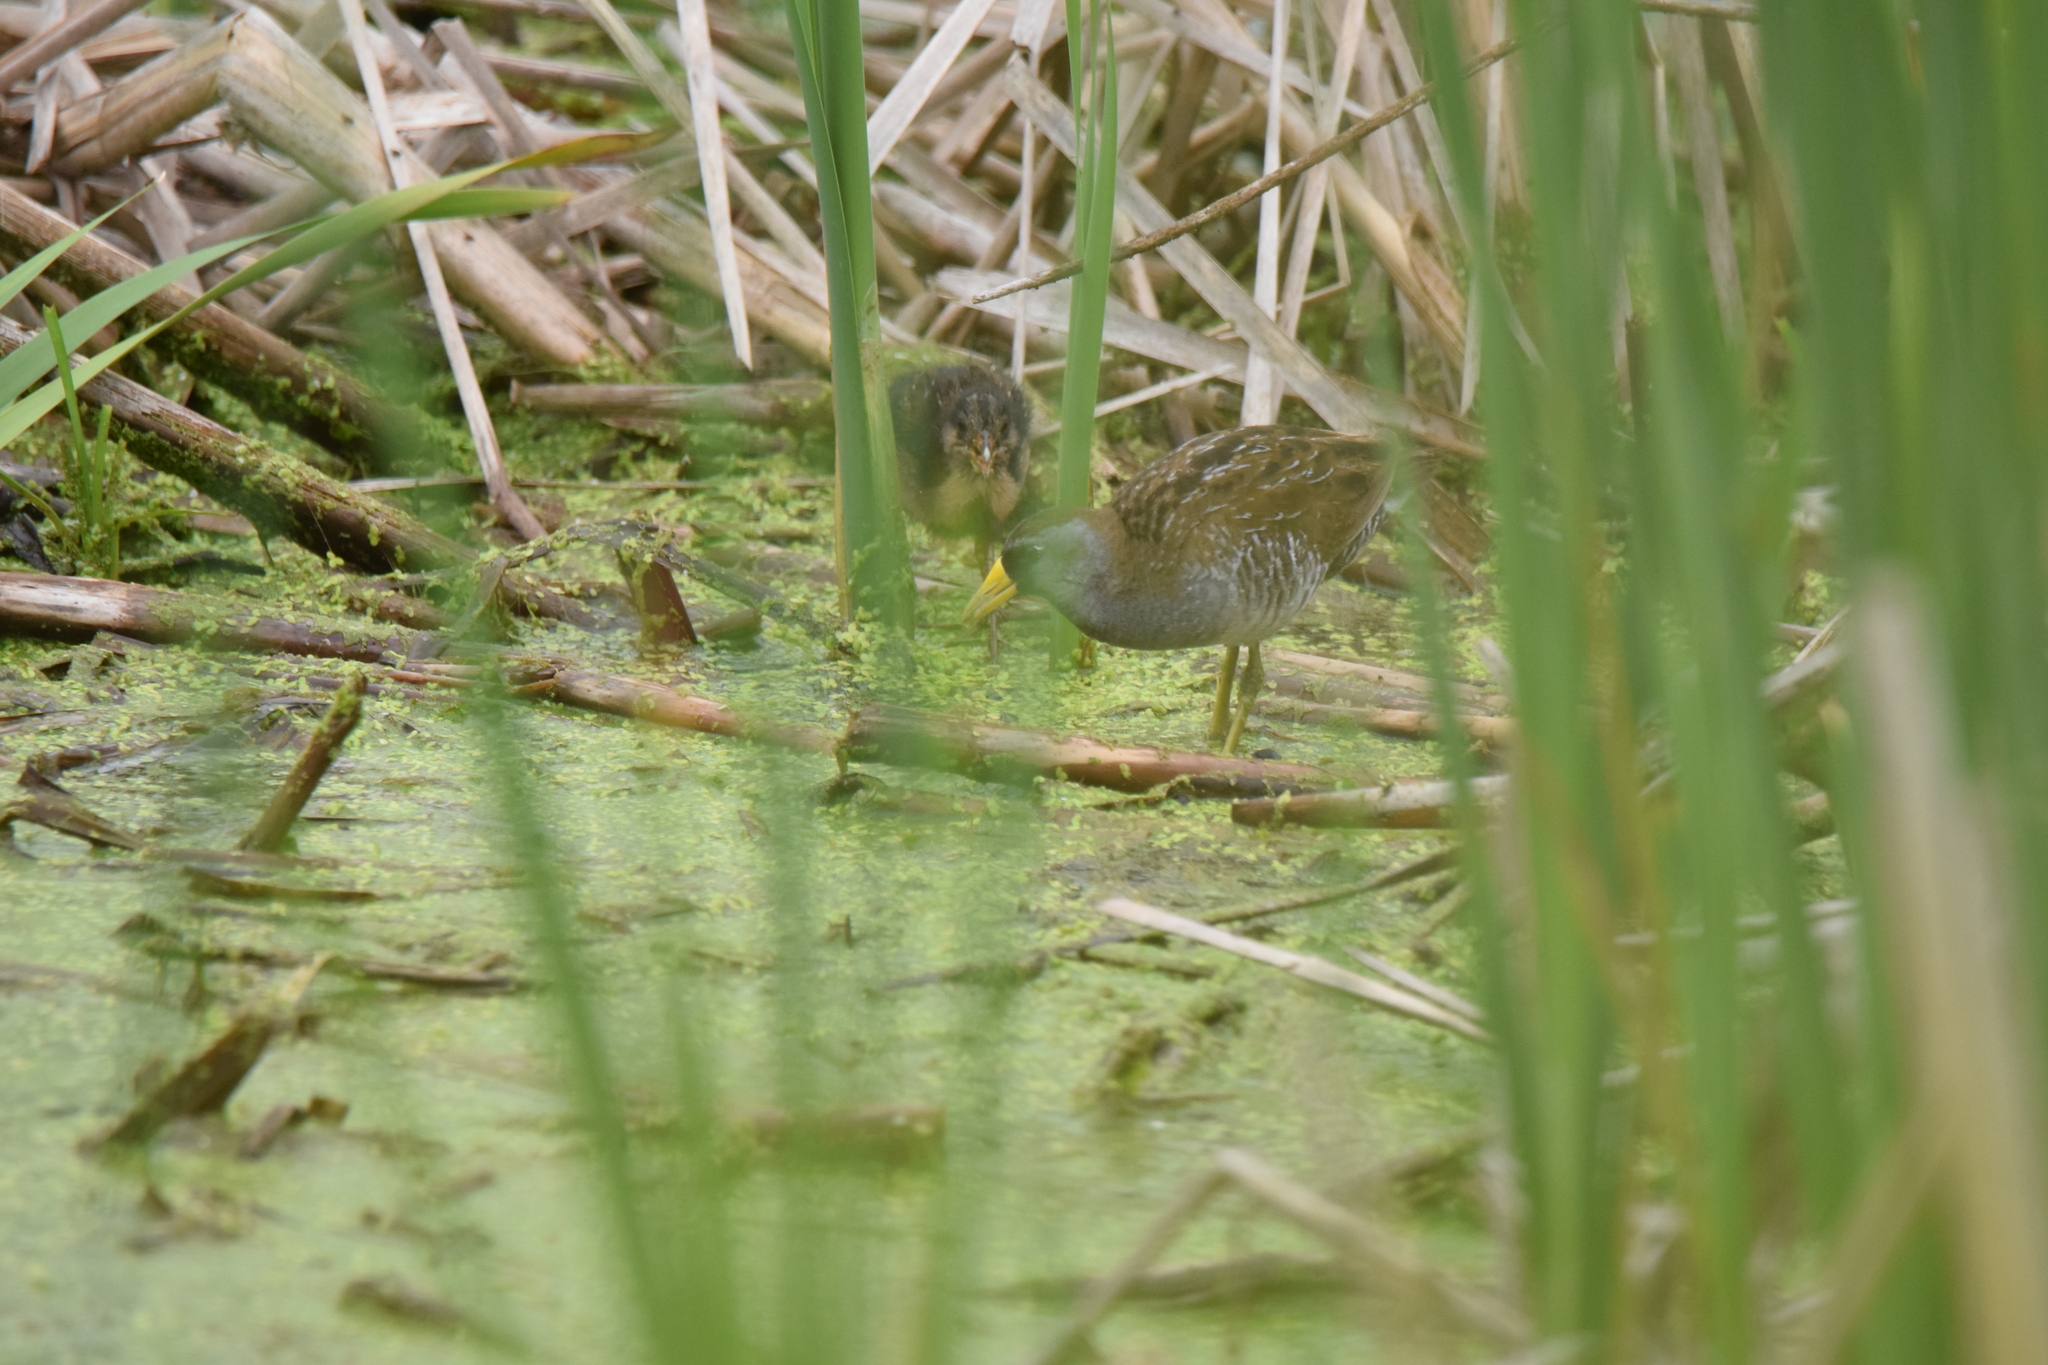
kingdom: Animalia
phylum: Chordata
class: Aves
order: Gruiformes
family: Rallidae
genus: Porzana
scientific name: Porzana carolina
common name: Sora
